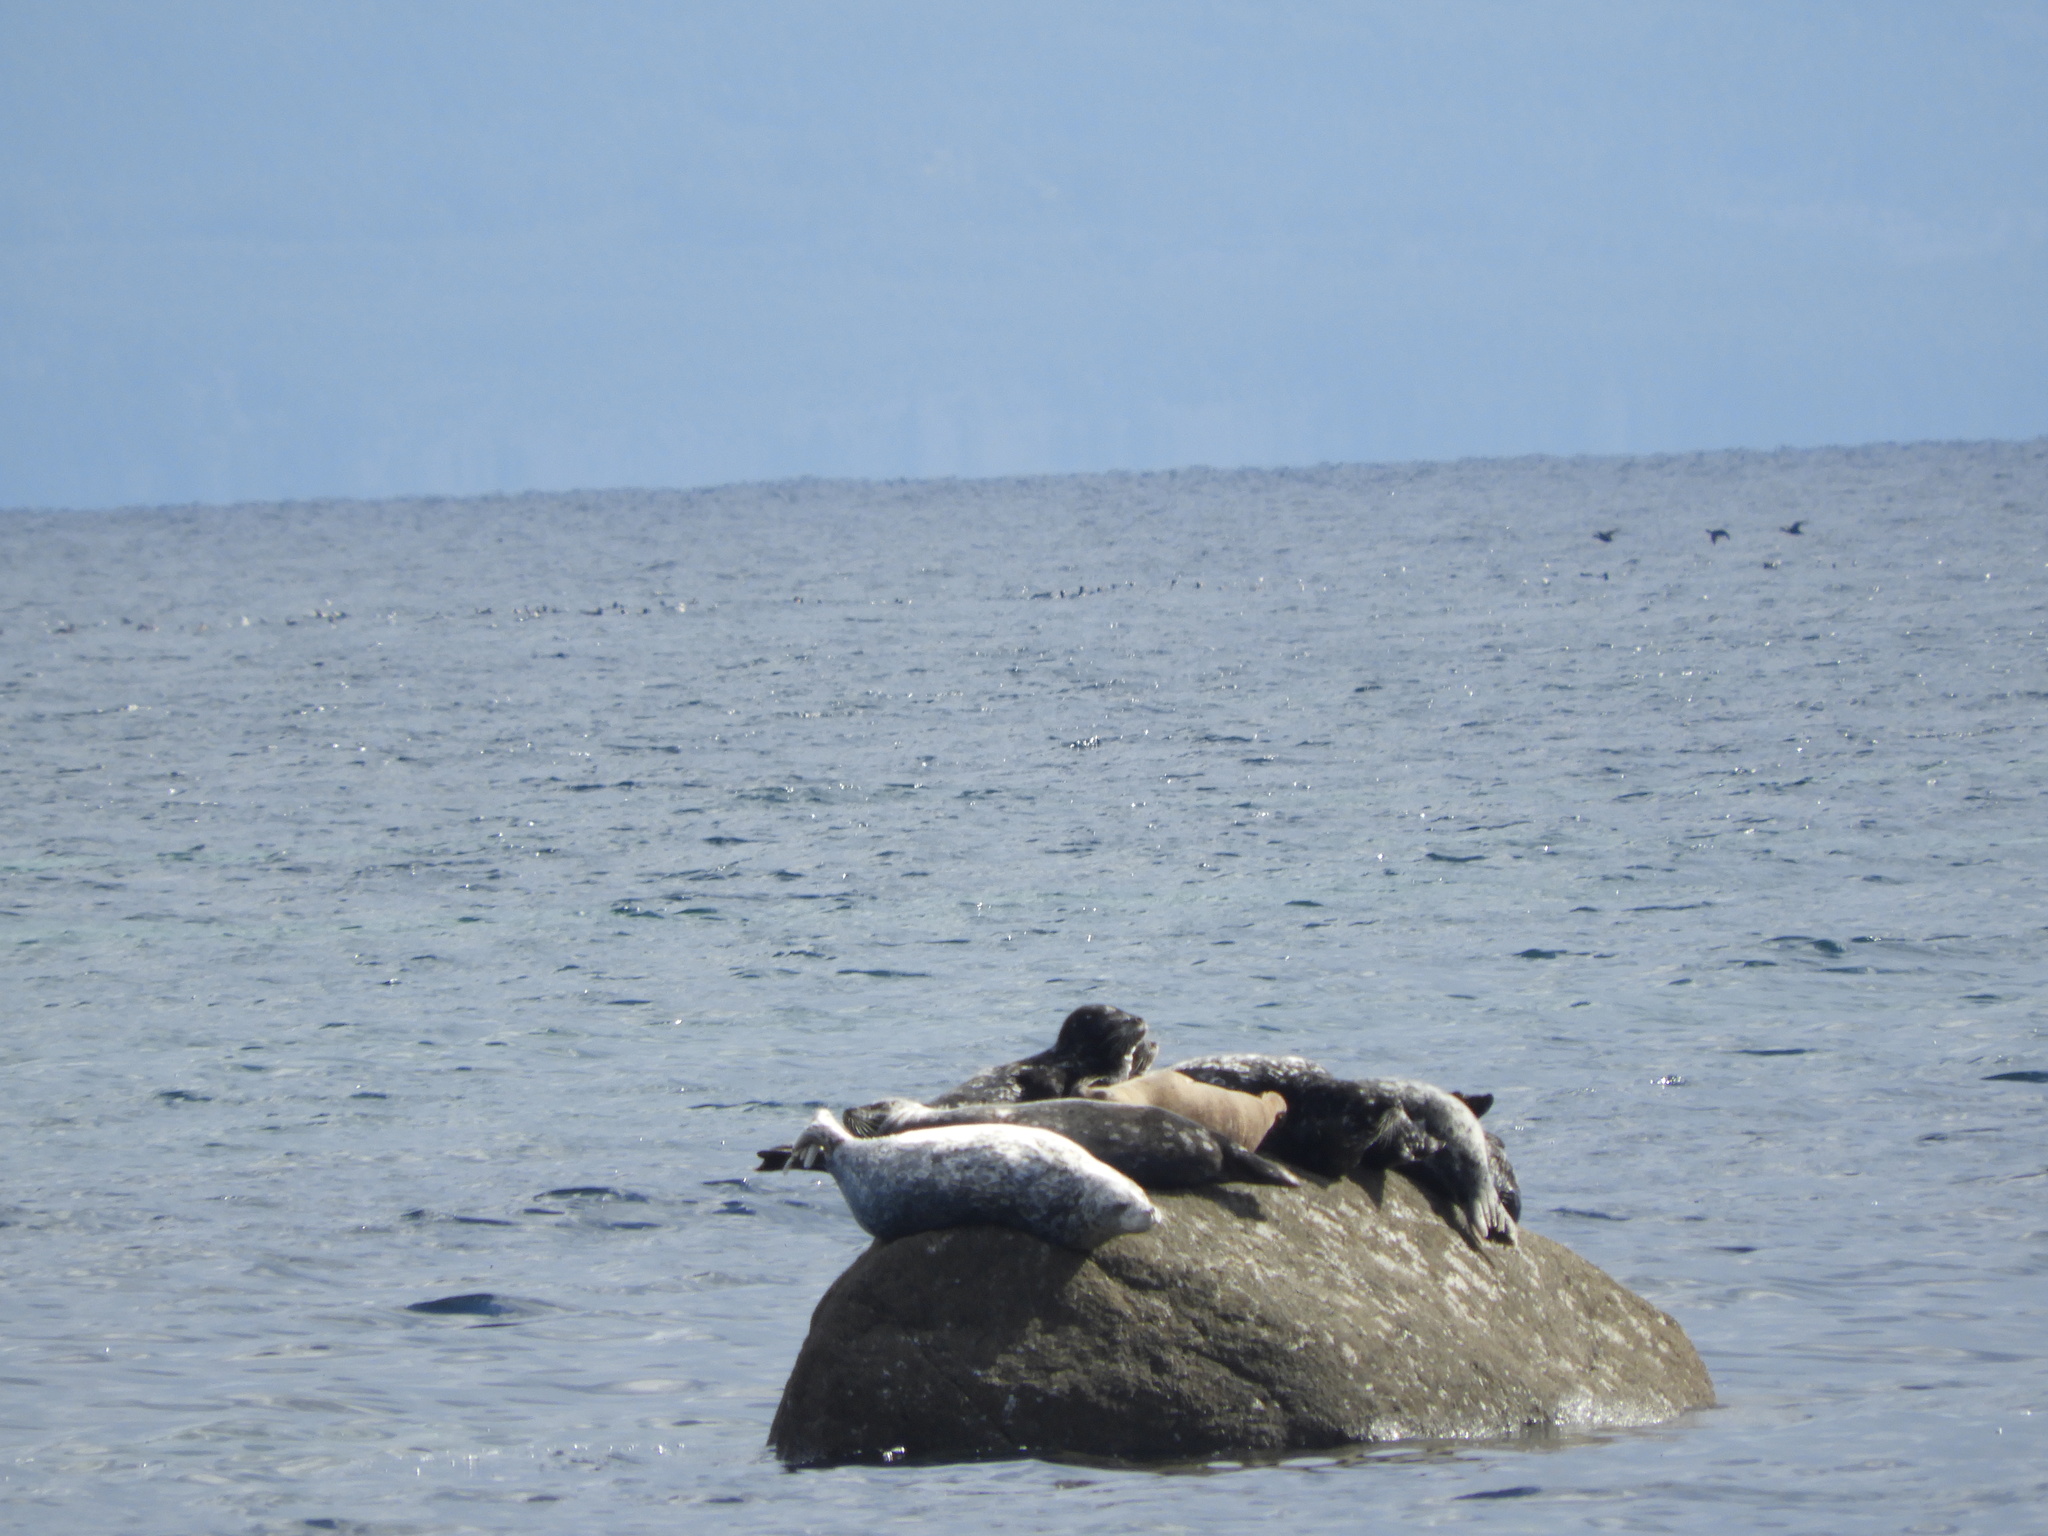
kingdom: Animalia
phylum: Chordata
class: Mammalia
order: Carnivora
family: Phocidae
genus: Phoca
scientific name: Phoca vitulina
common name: Harbor seal
